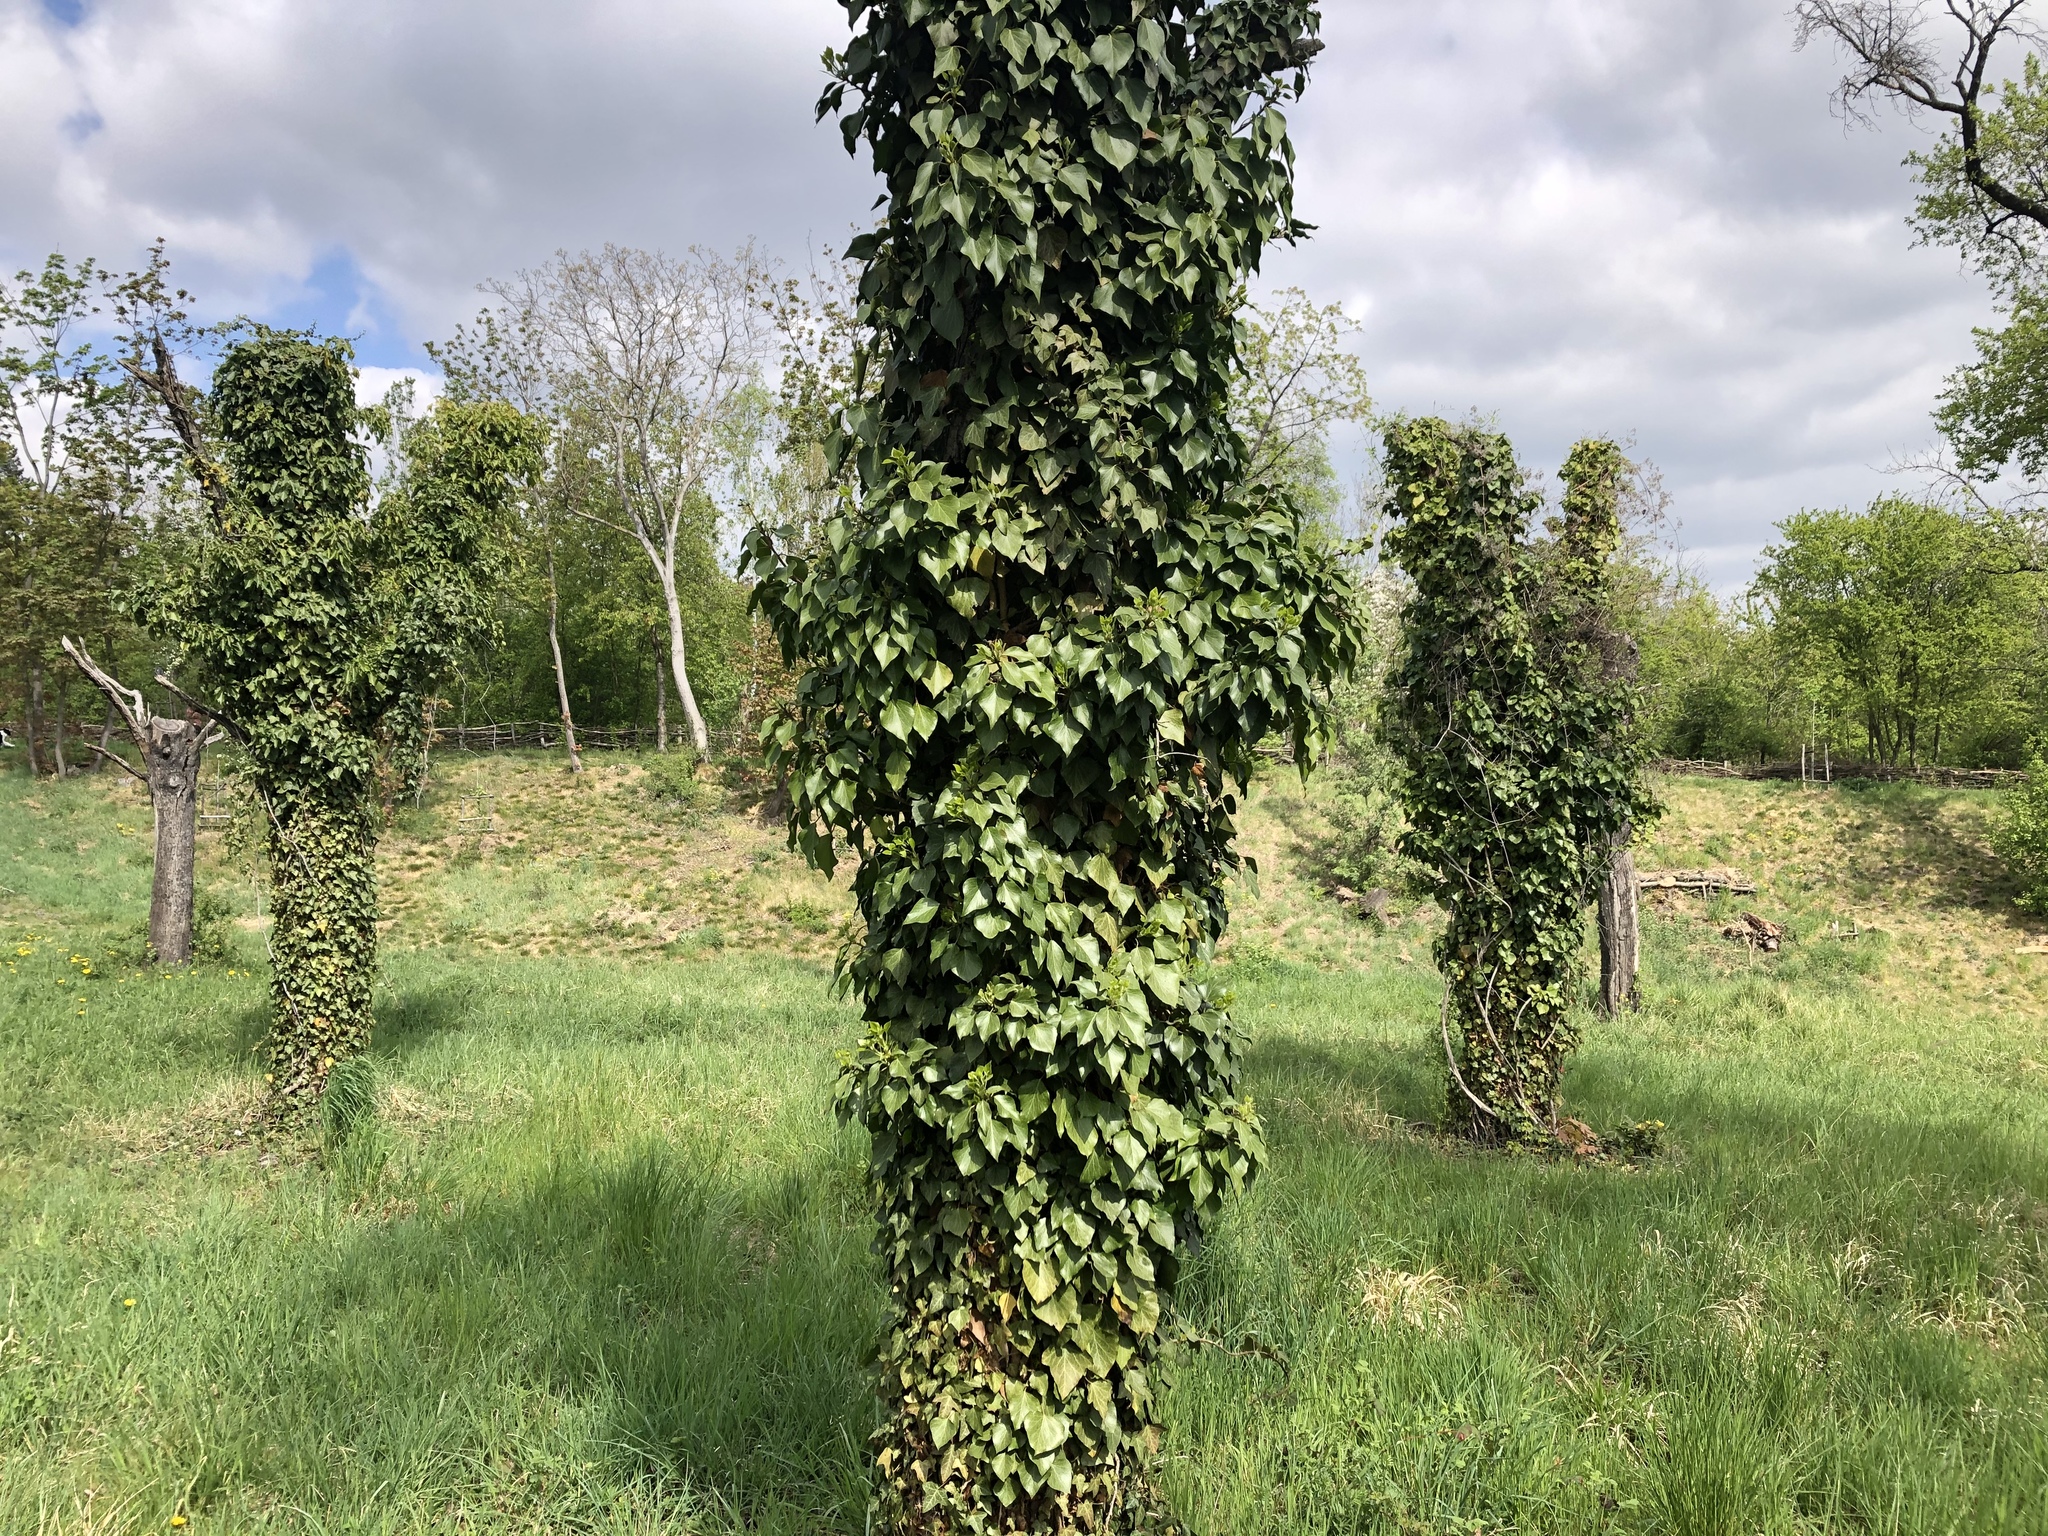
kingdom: Plantae
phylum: Tracheophyta
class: Magnoliopsida
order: Apiales
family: Araliaceae
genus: Hedera
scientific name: Hedera helix
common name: Ivy
